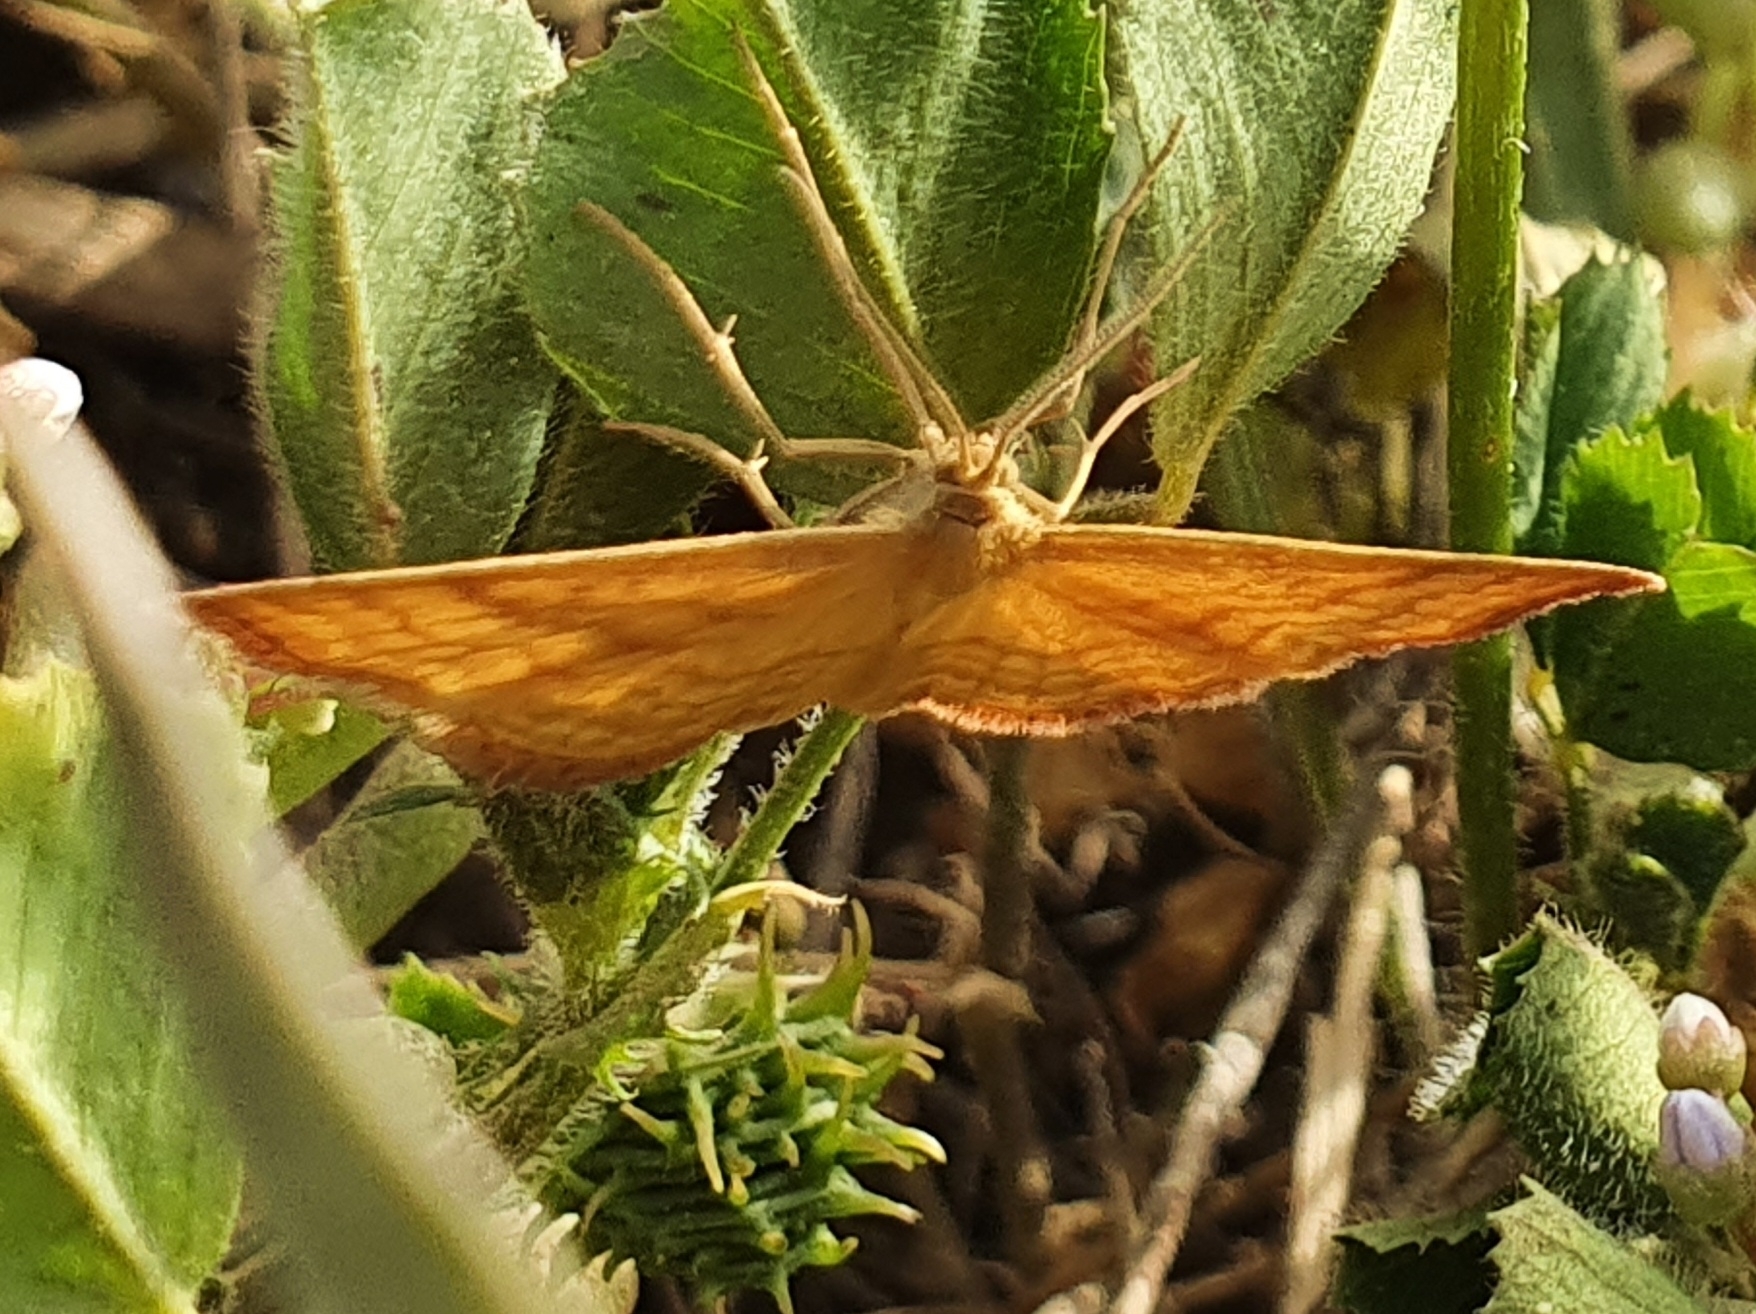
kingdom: Animalia
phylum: Arthropoda
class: Insecta
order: Lepidoptera
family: Geometridae
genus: Idaea
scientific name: Idaea luteolaria
